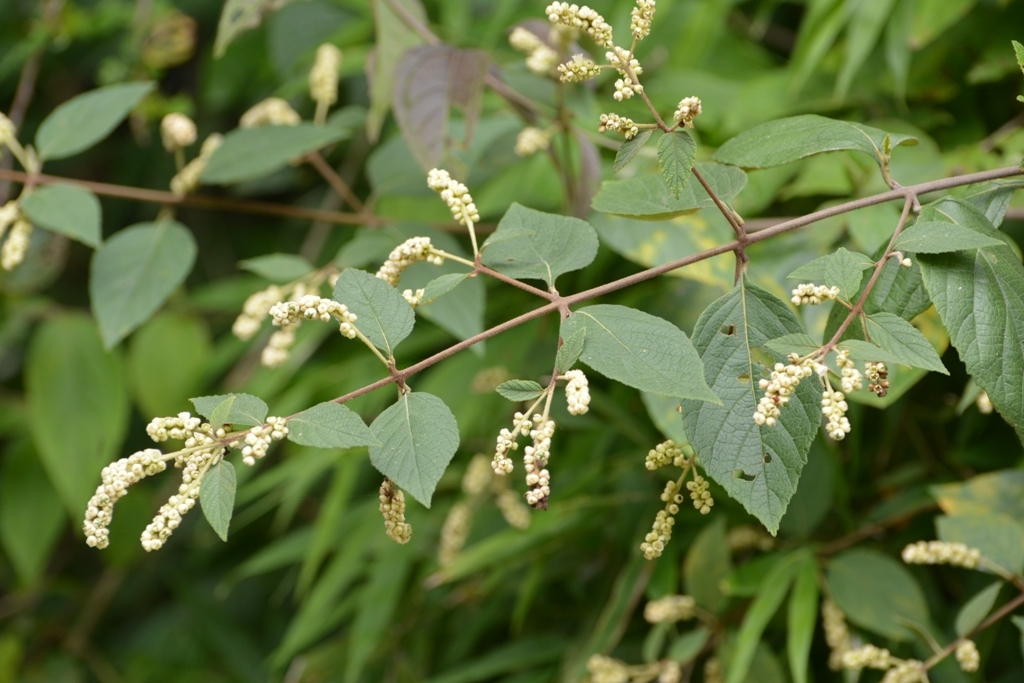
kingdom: Plantae
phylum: Tracheophyta
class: Magnoliopsida
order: Boraginales
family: Cordiaceae
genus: Varronia
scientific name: Varronia spinescens
